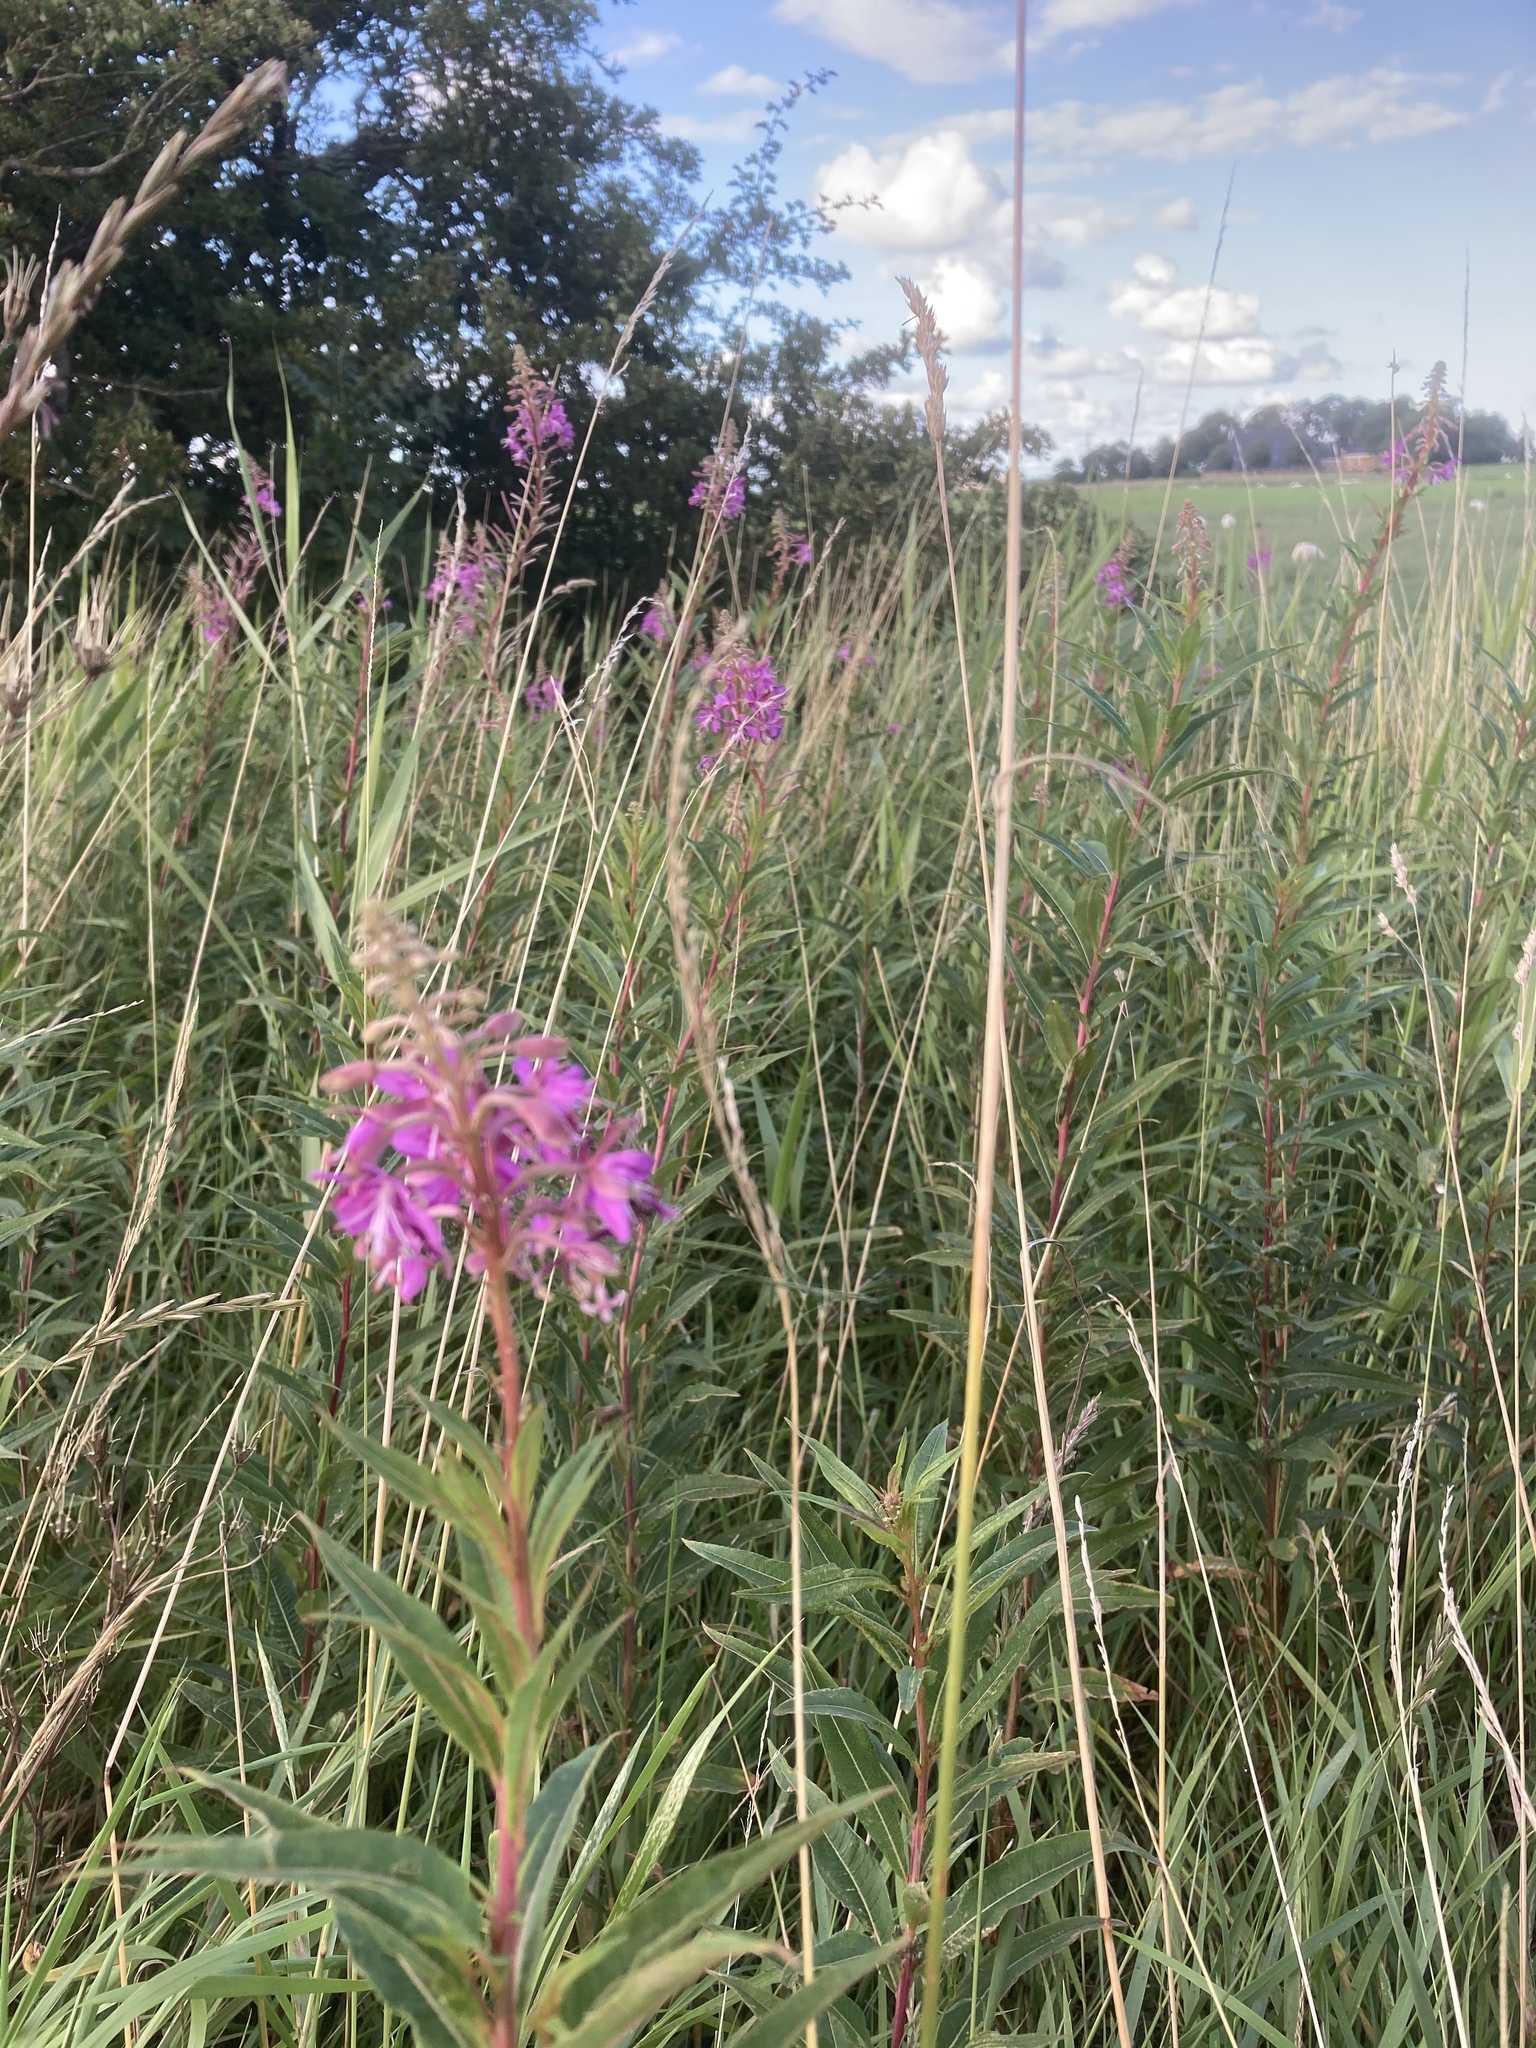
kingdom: Plantae
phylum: Tracheophyta
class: Magnoliopsida
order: Myrtales
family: Onagraceae
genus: Chamaenerion
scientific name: Chamaenerion angustifolium
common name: Fireweed
